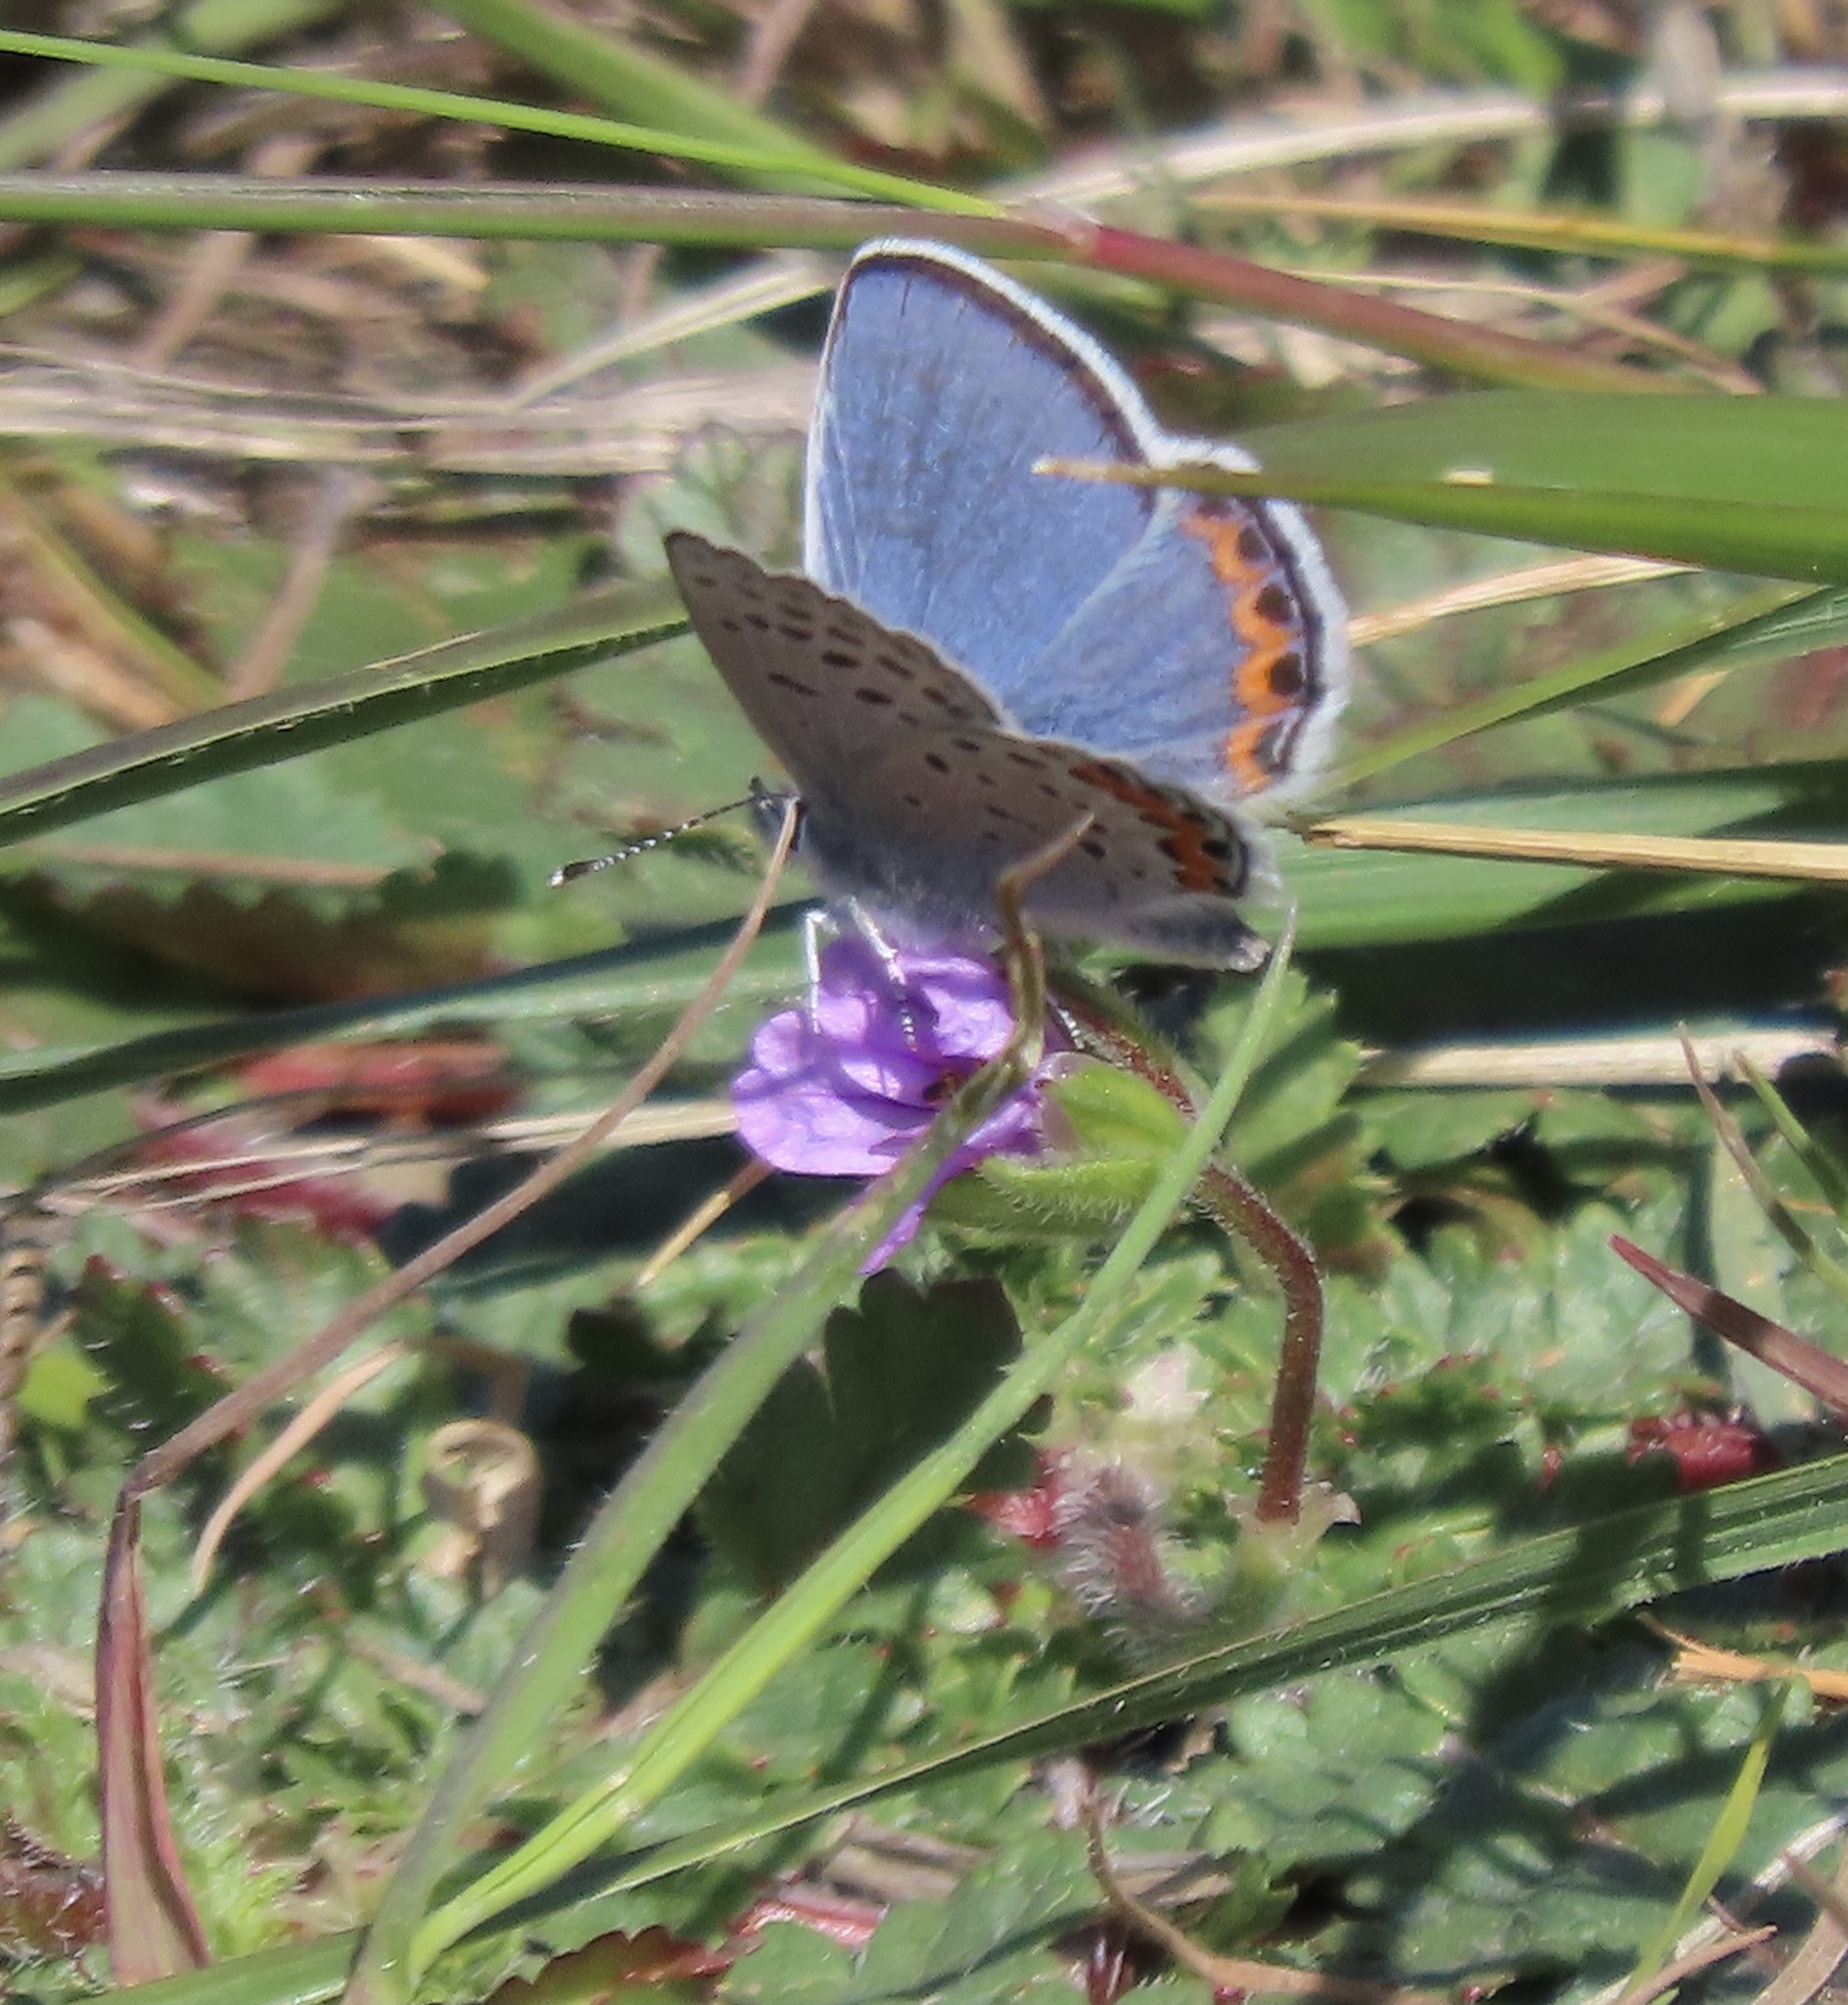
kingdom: Animalia
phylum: Arthropoda
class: Insecta
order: Lepidoptera
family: Lycaenidae
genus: Icaricia
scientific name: Icaricia acmon
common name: Acmon blue
